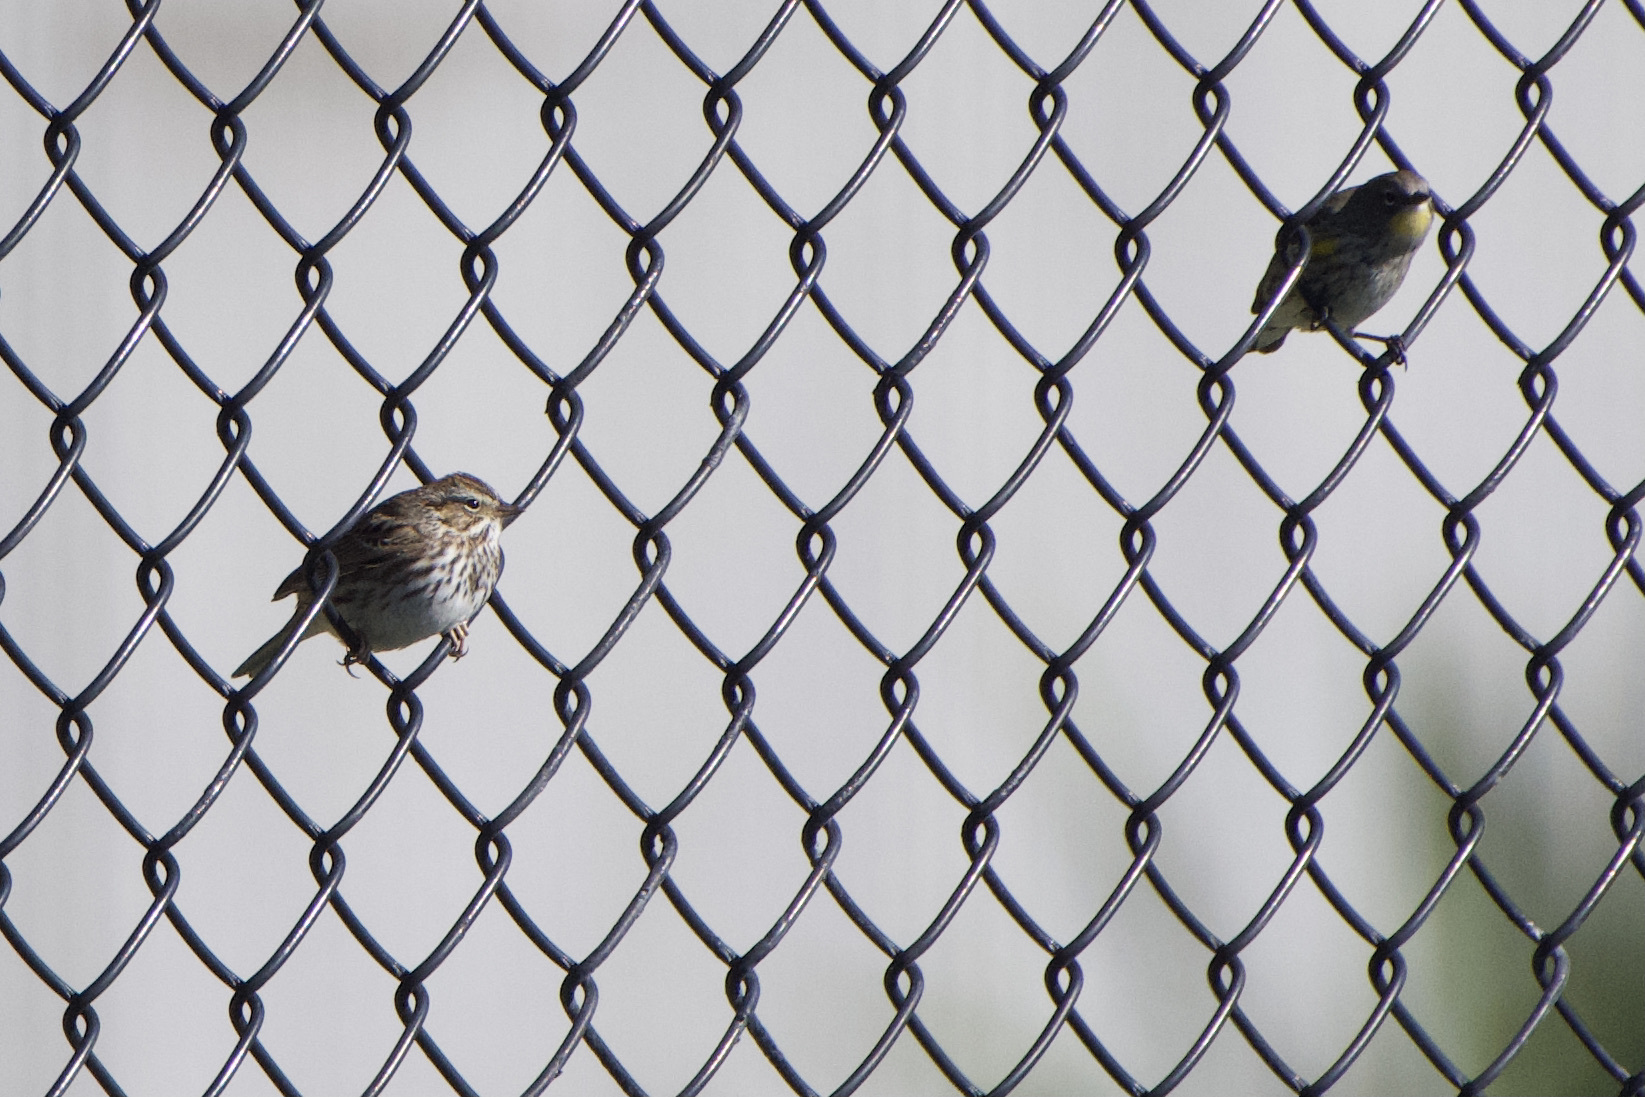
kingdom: Animalia
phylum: Chordata
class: Aves
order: Passeriformes
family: Passerellidae
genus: Passerculus
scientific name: Passerculus sandwichensis
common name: Savannah sparrow
